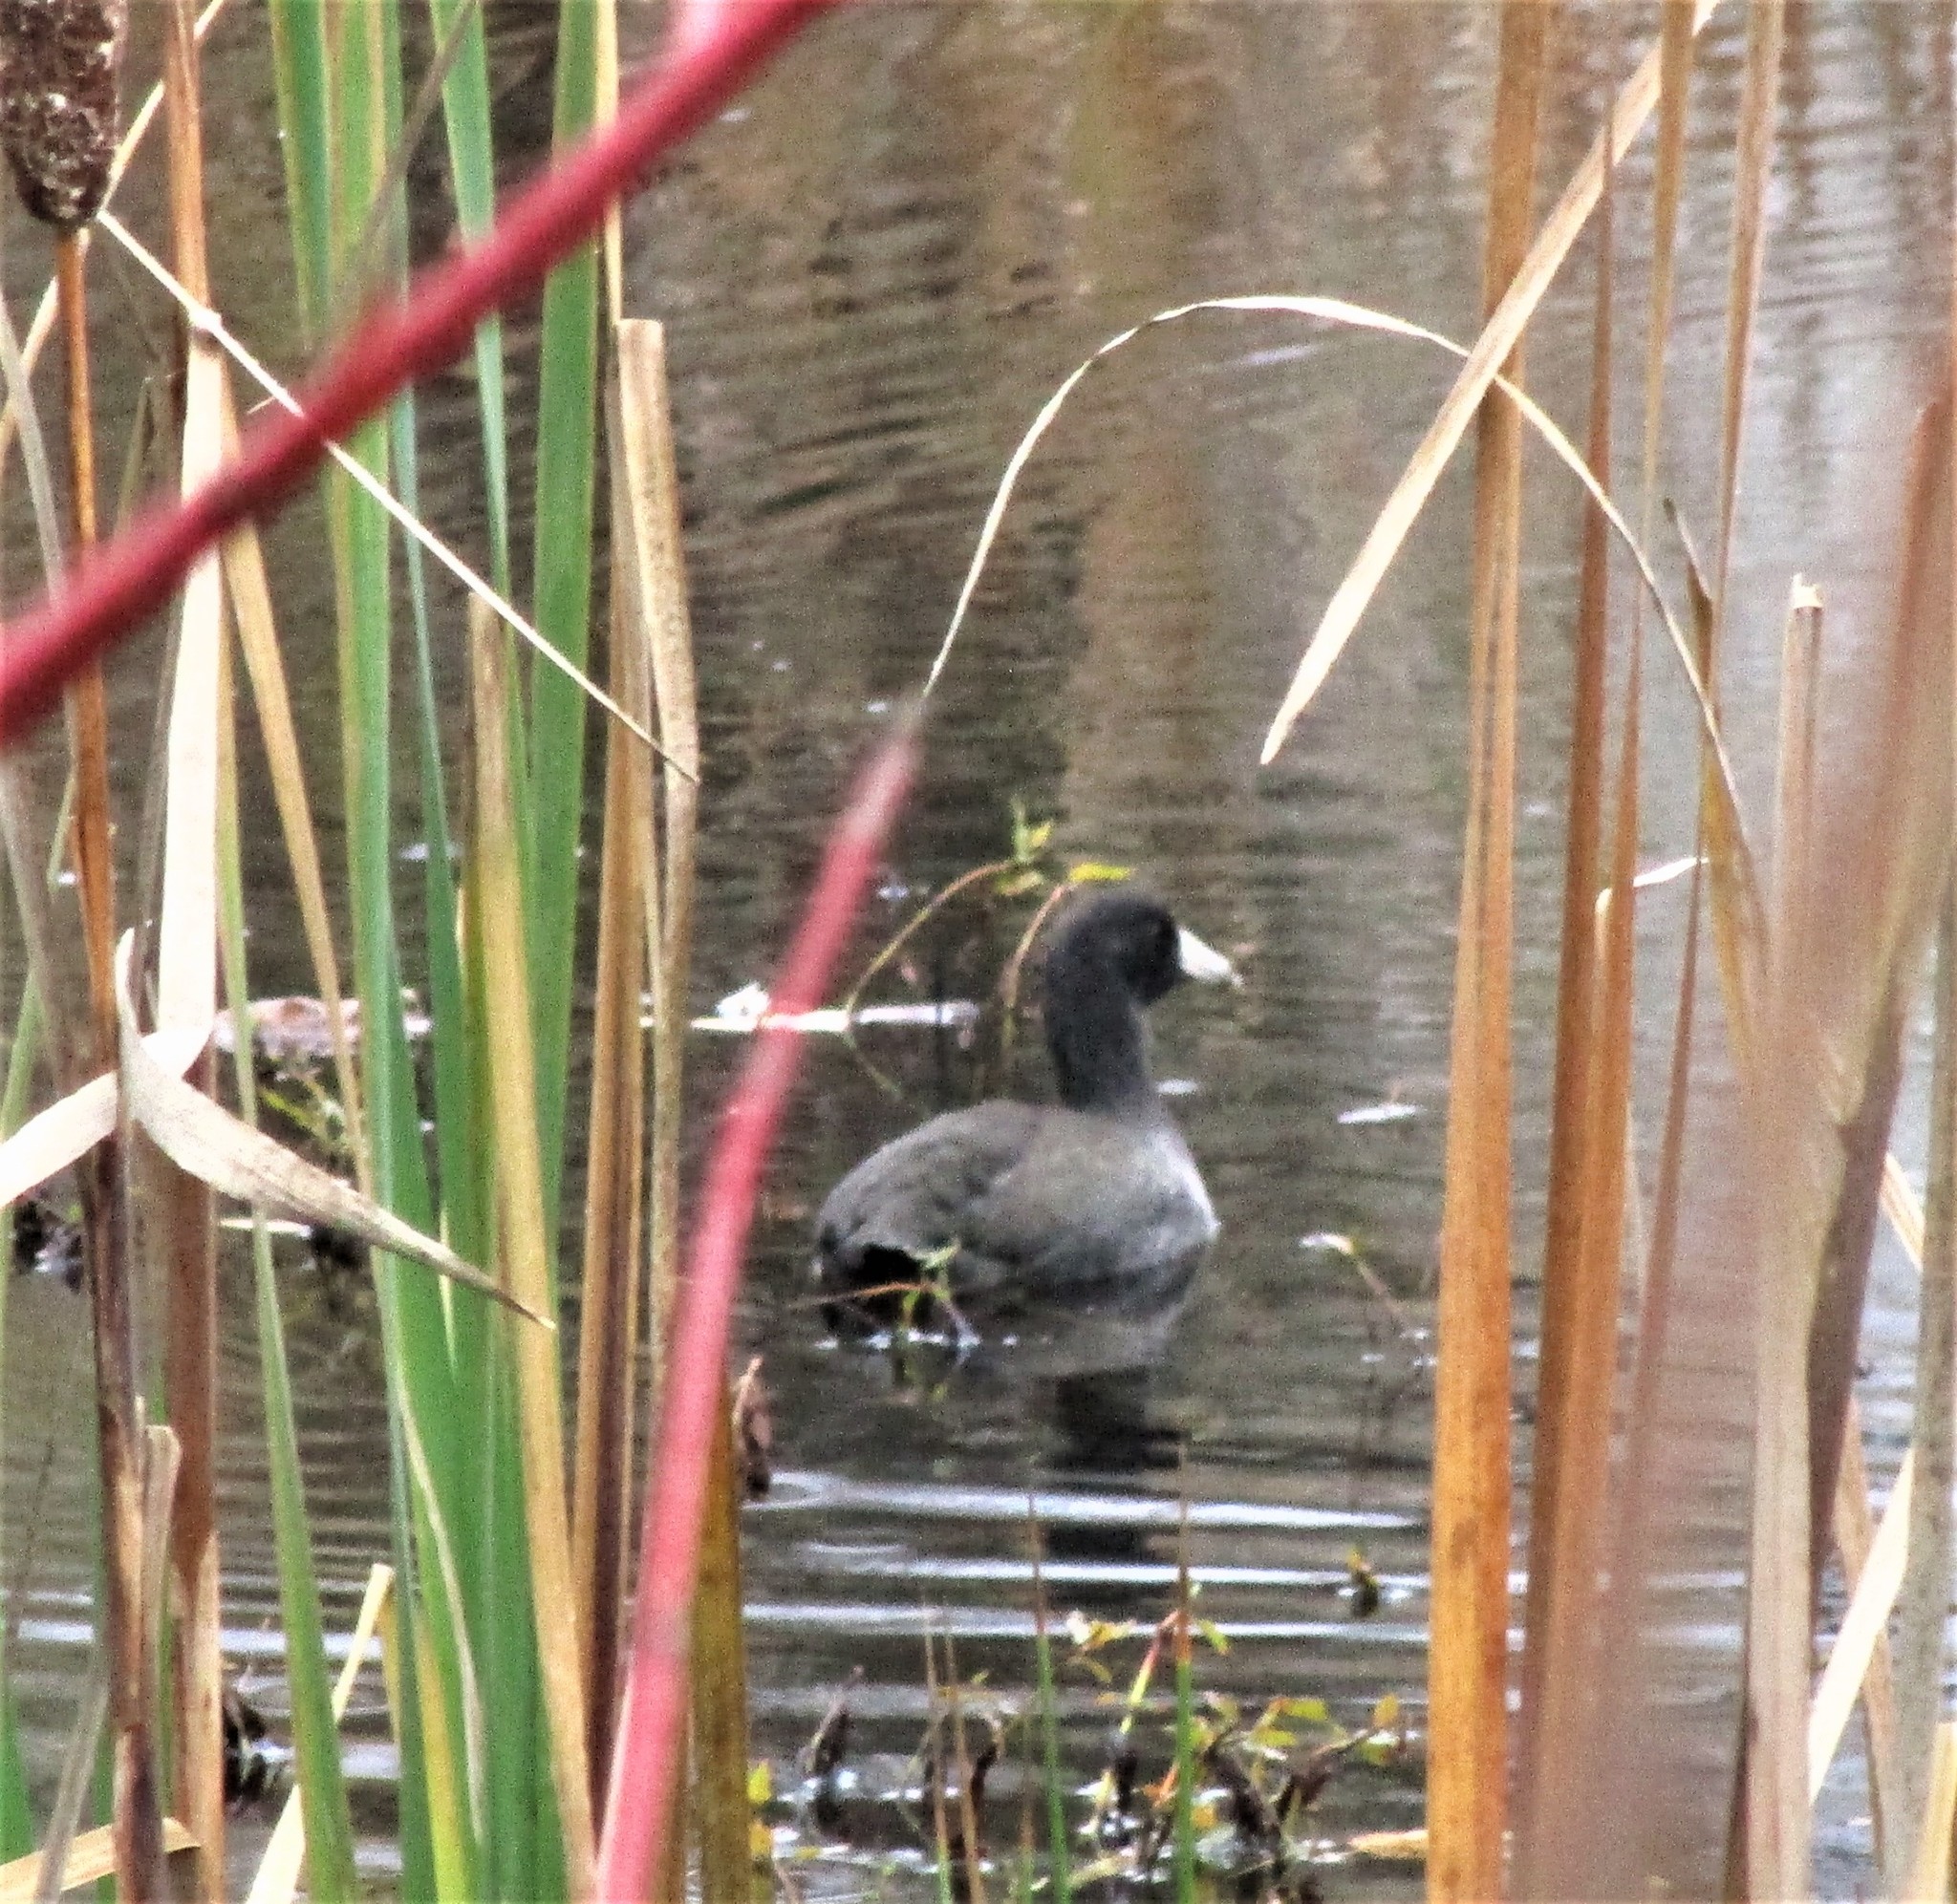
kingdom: Animalia
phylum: Chordata
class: Aves
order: Gruiformes
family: Rallidae
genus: Fulica
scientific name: Fulica americana
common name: American coot
